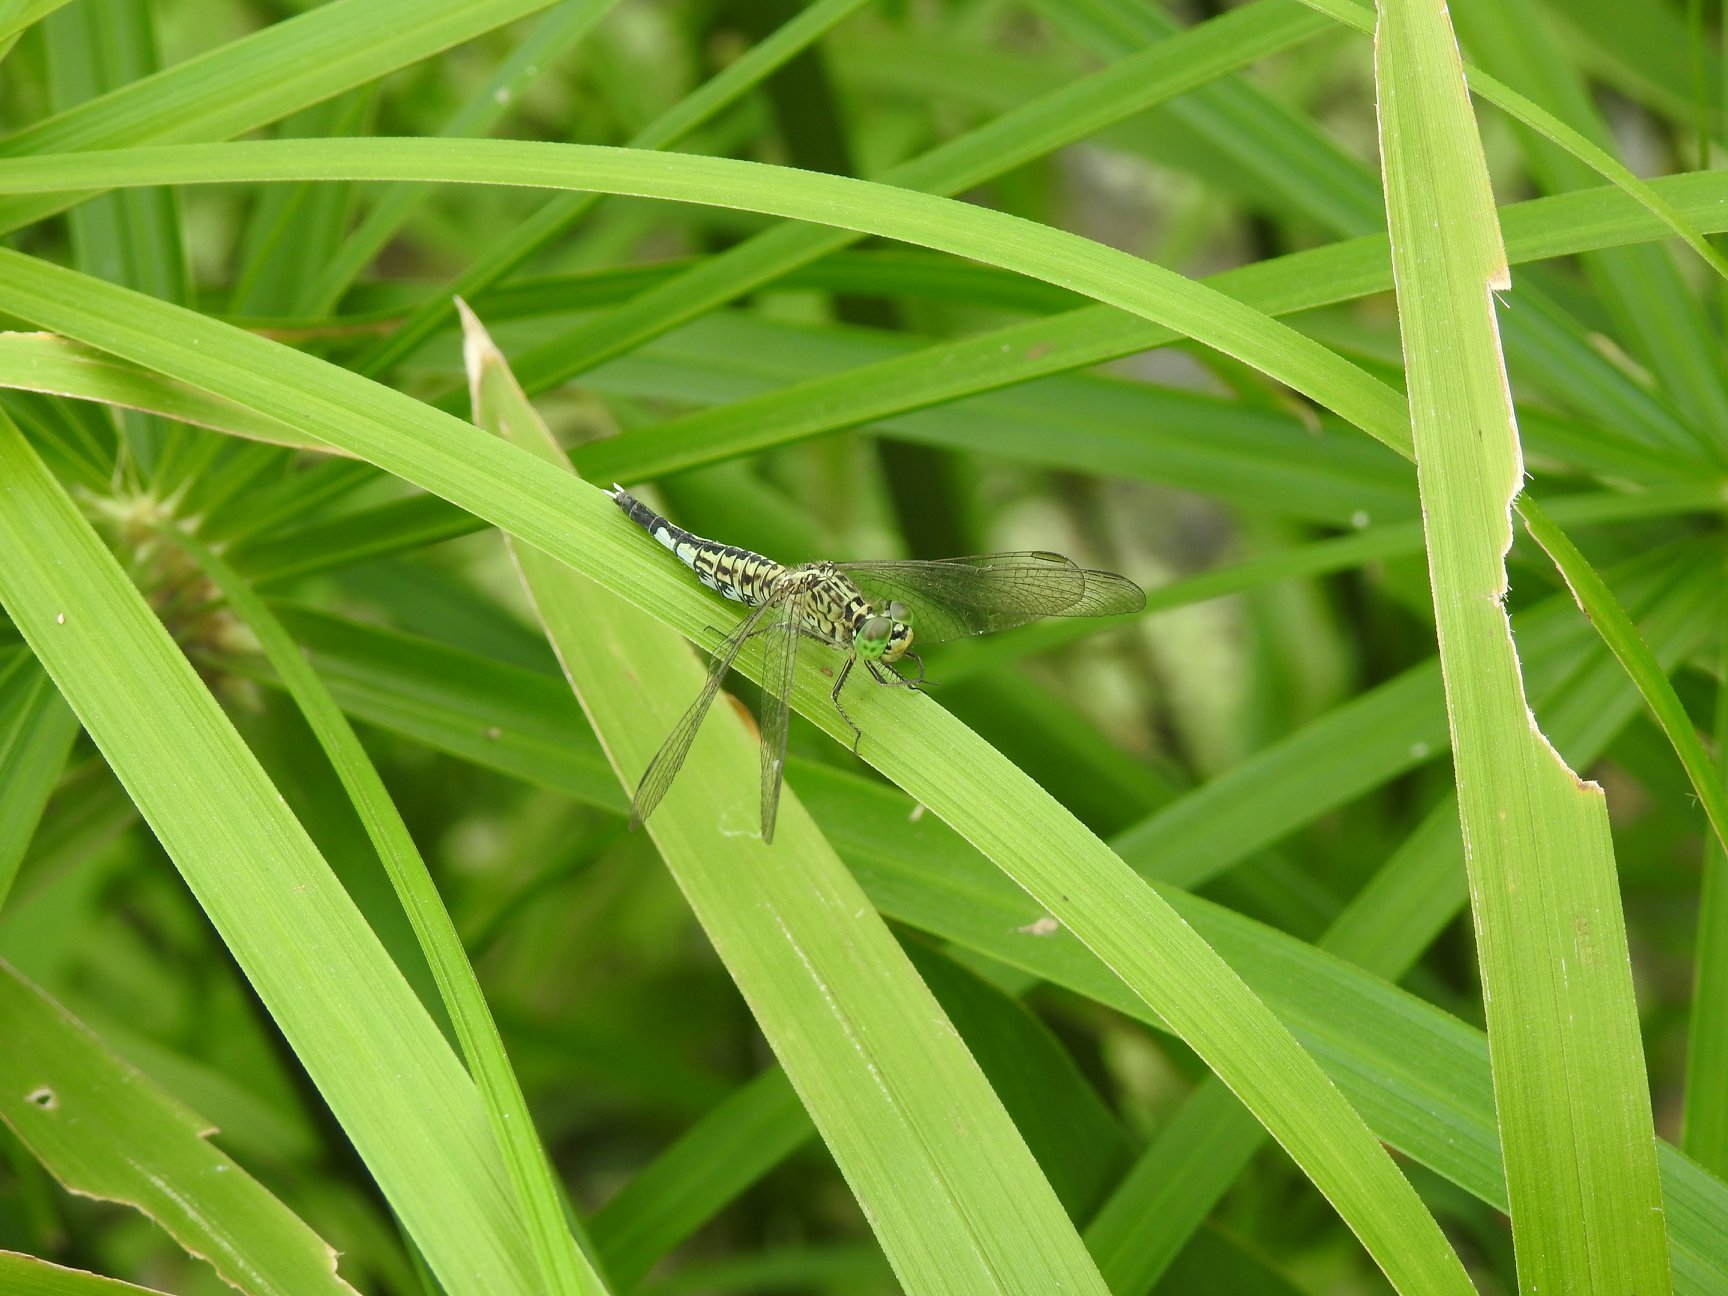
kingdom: Animalia
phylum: Arthropoda
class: Insecta
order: Odonata
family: Libellulidae
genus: Acisoma
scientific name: Acisoma panorpoides
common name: Asian pintail
